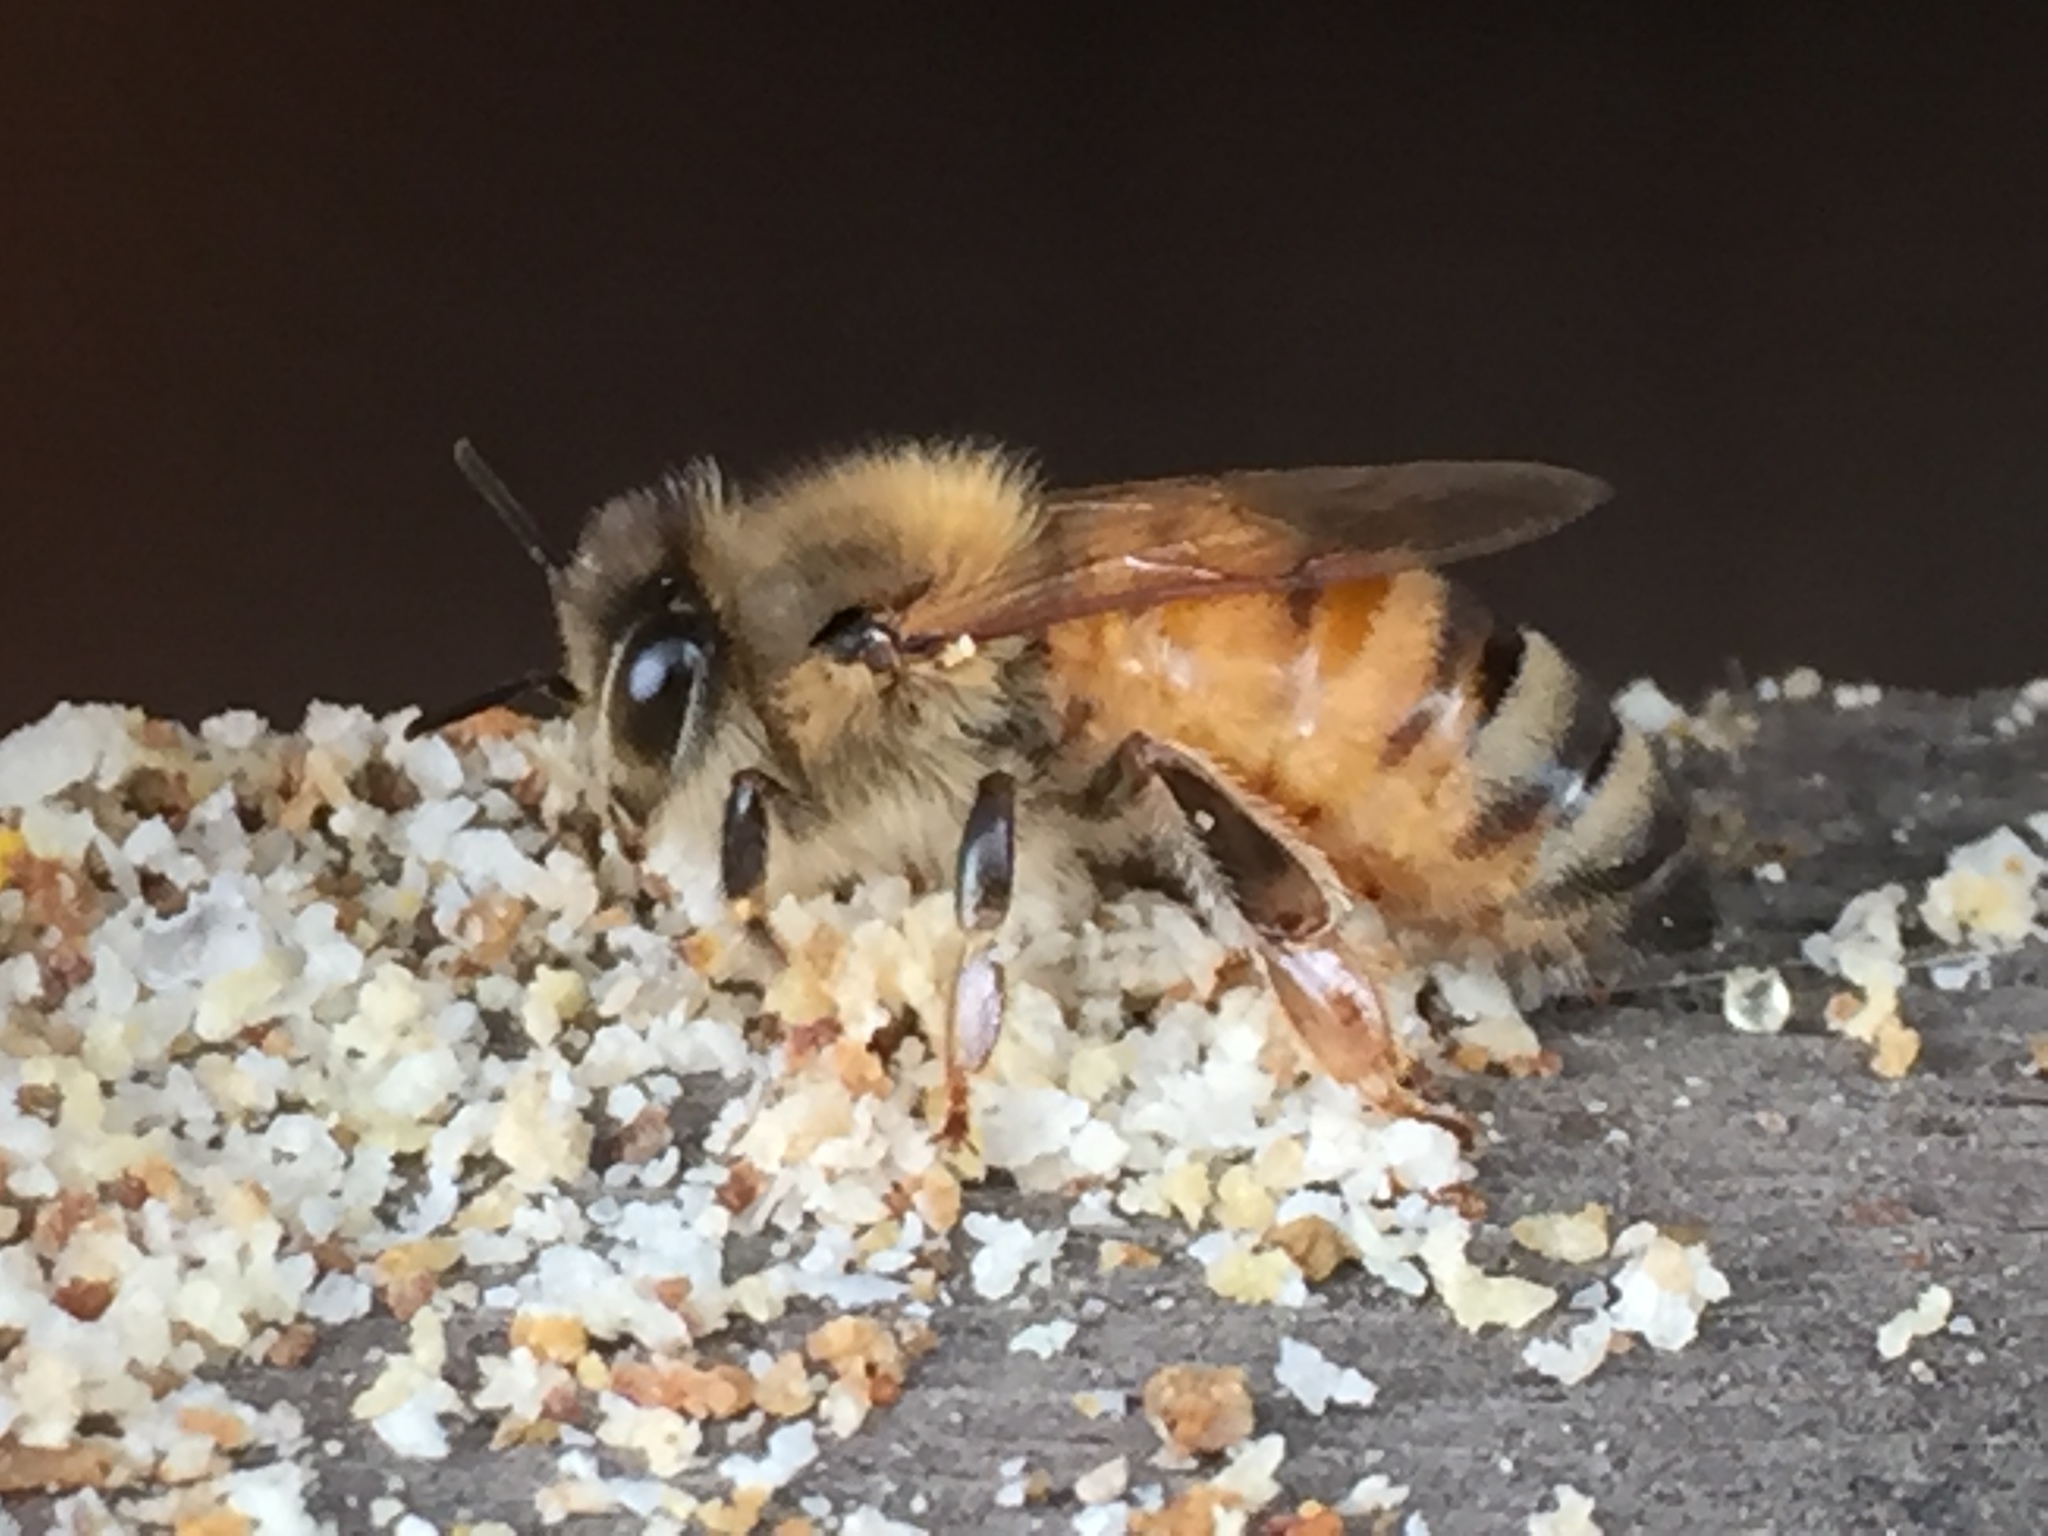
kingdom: Animalia
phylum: Arthropoda
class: Insecta
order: Hymenoptera
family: Apidae
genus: Apis
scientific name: Apis mellifera
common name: Honey bee
